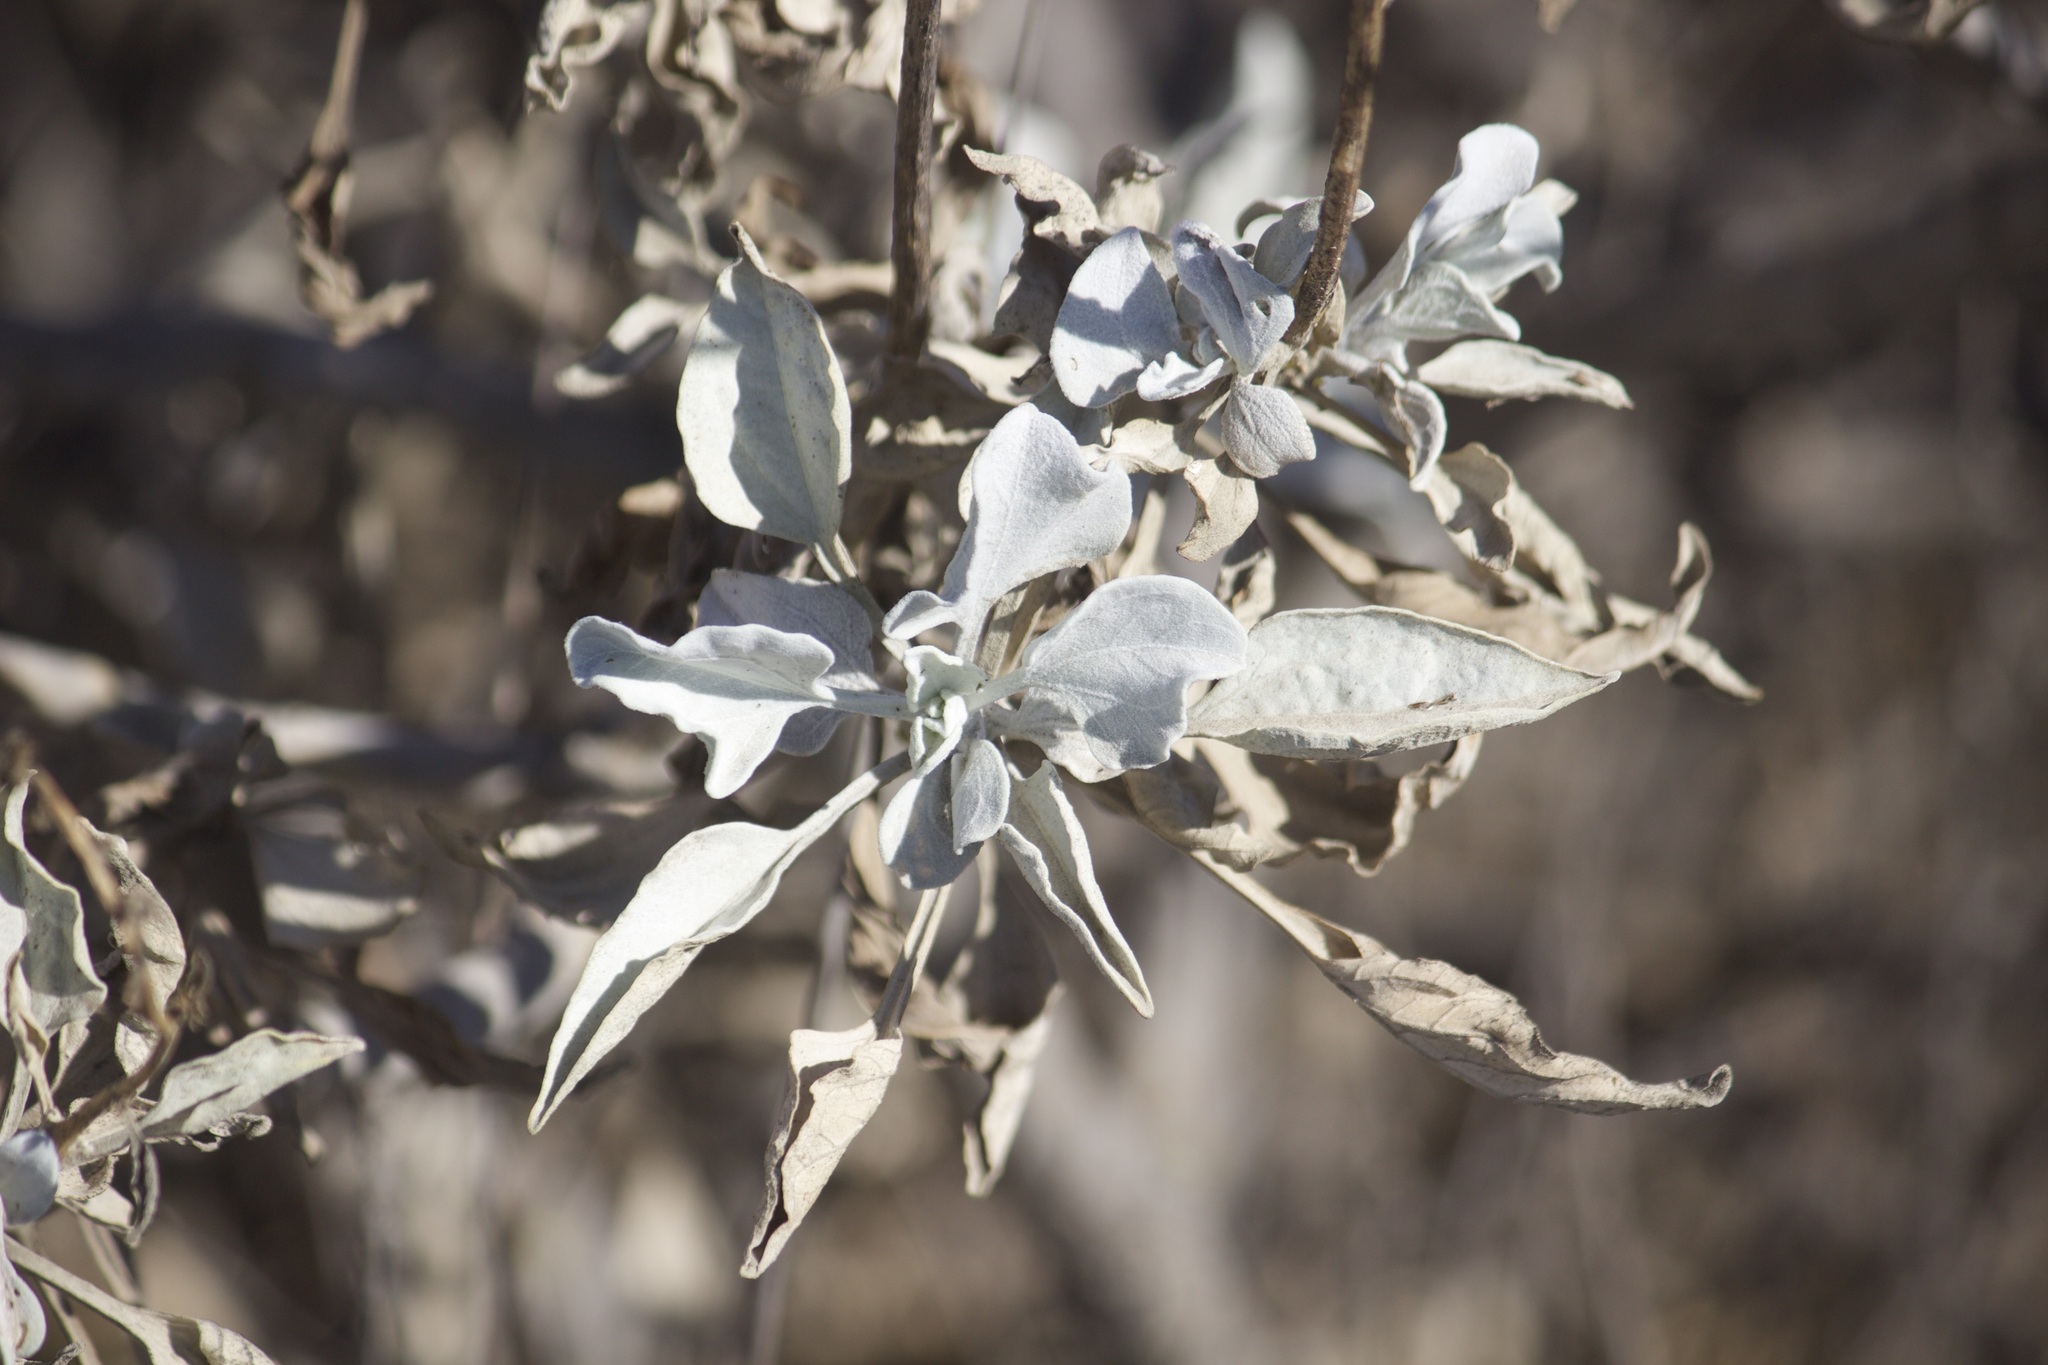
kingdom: Plantae
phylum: Tracheophyta
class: Magnoliopsida
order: Asterales
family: Asteraceae
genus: Encelia
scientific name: Encelia farinosa
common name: Brittlebush
